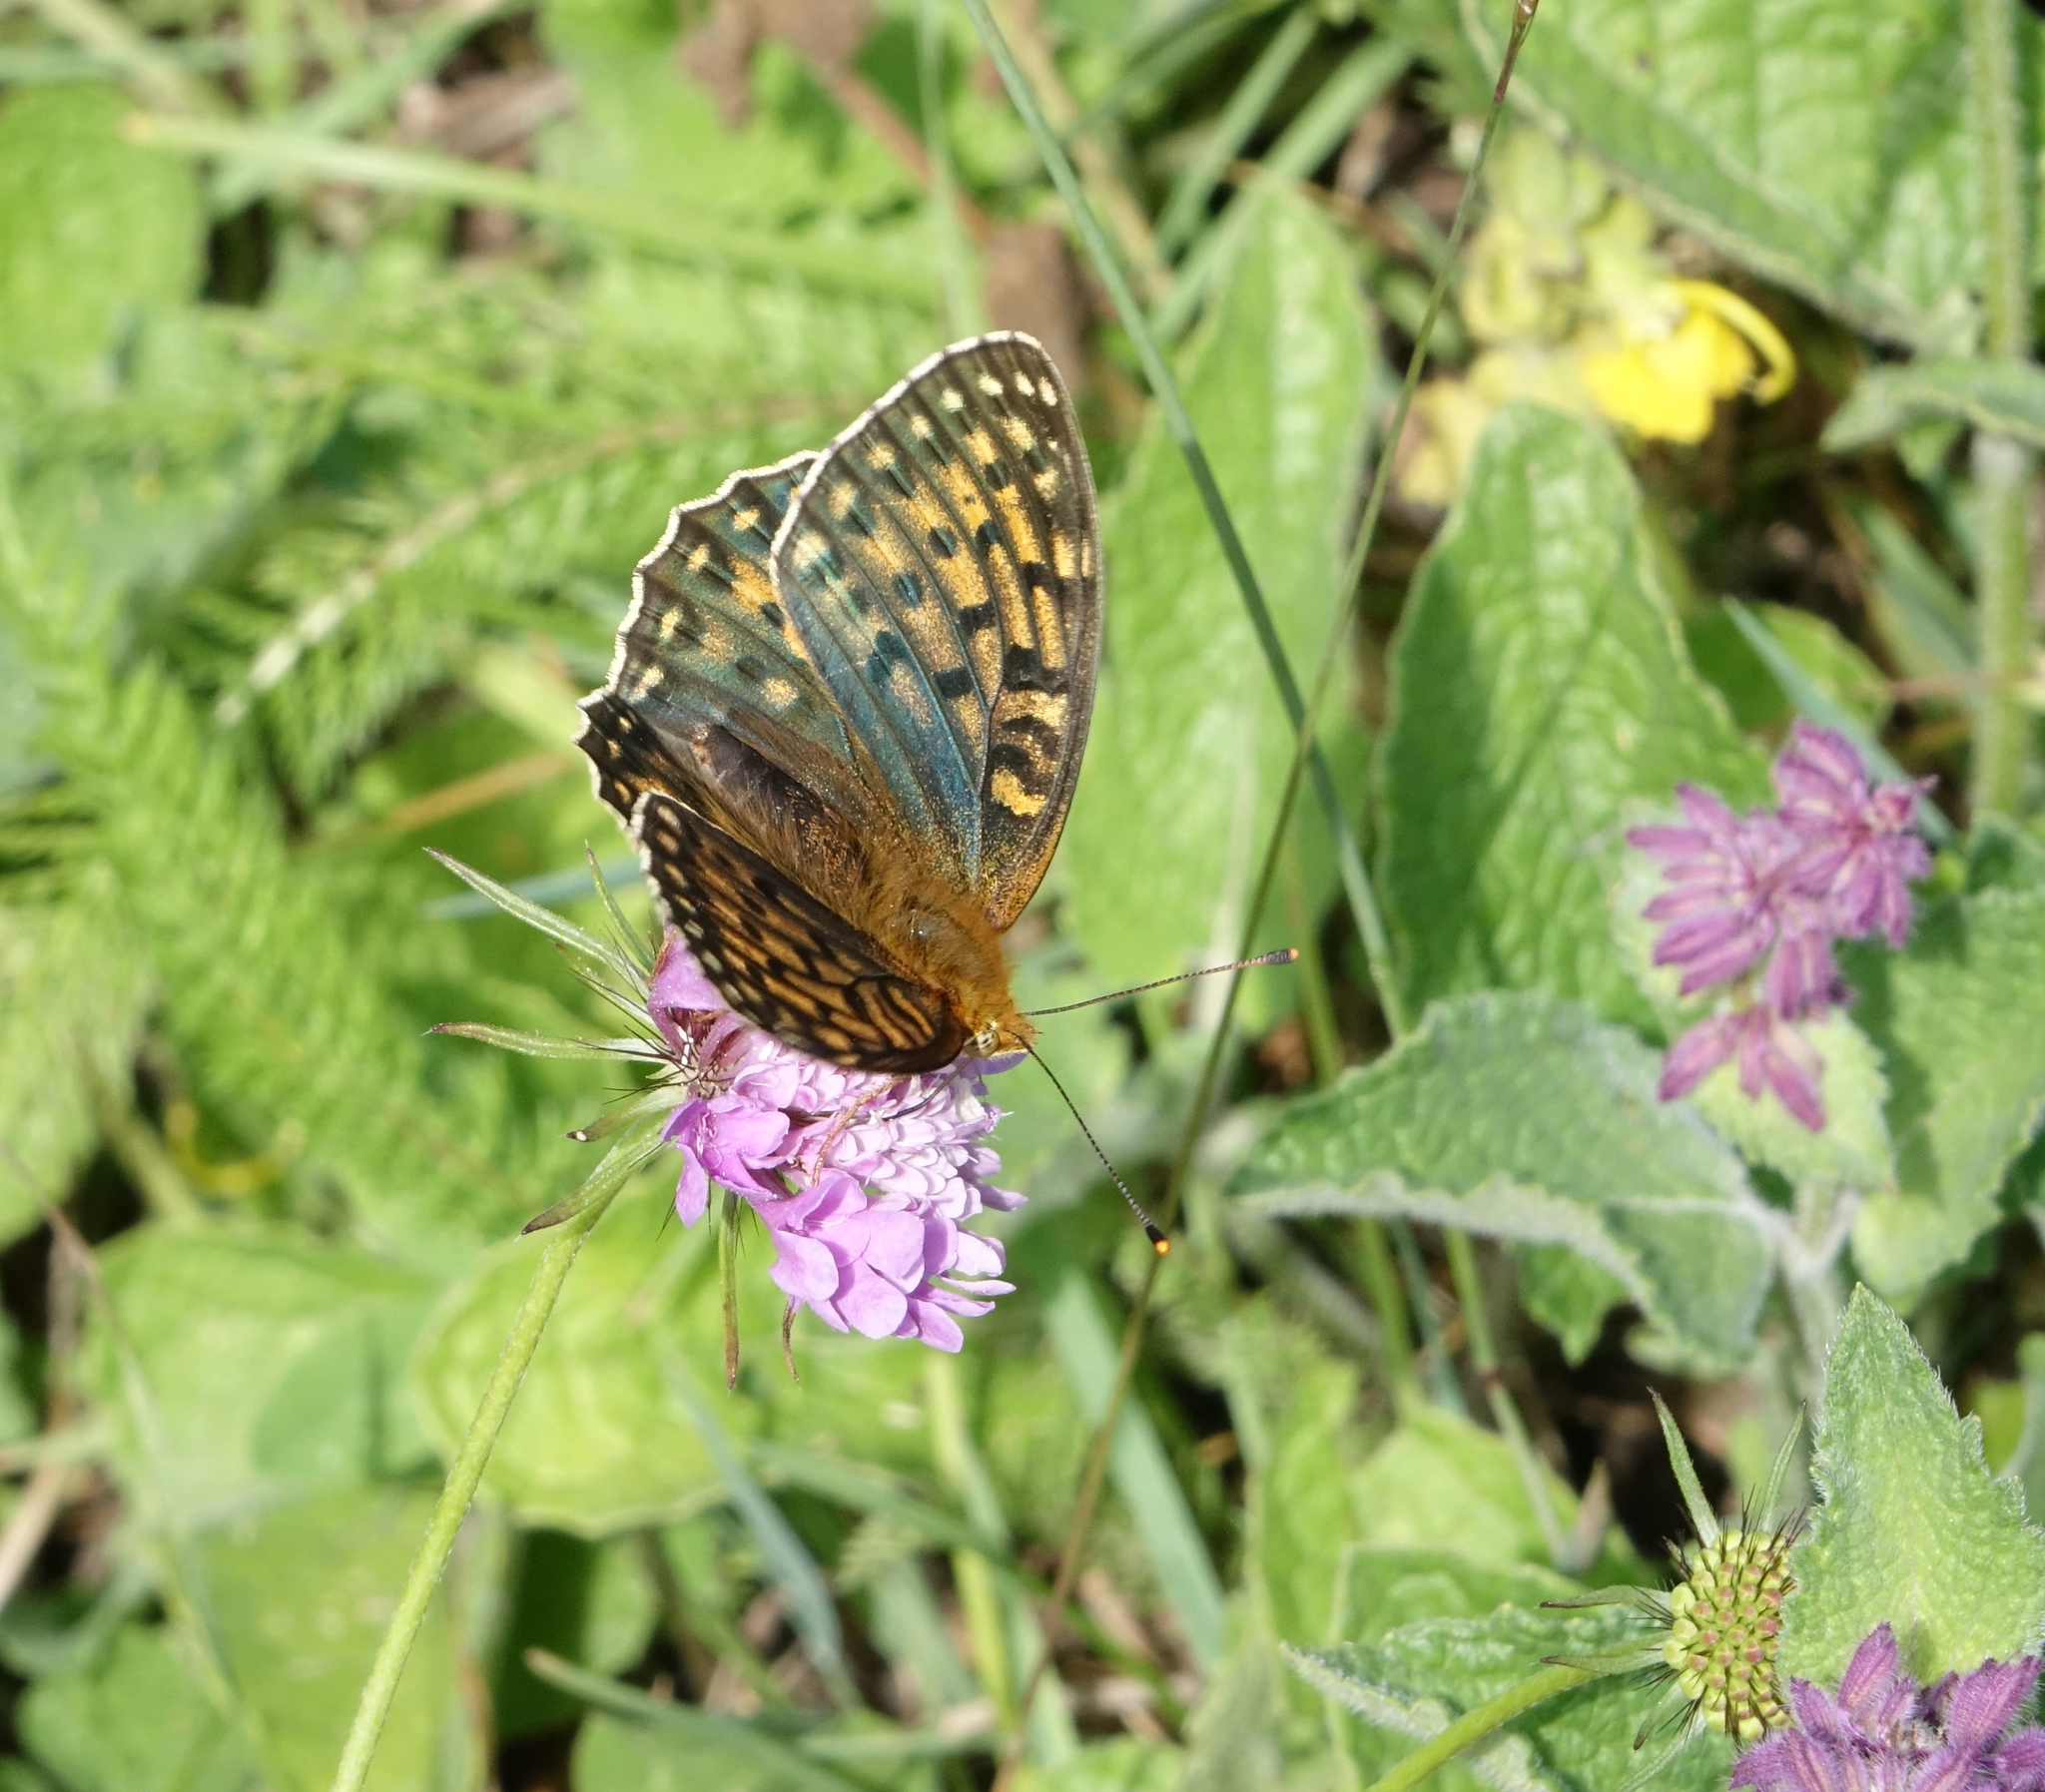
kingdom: Animalia
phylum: Arthropoda
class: Insecta
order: Lepidoptera
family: Nymphalidae
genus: Speyeria
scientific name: Speyeria aglaja
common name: Dark green fritillary
